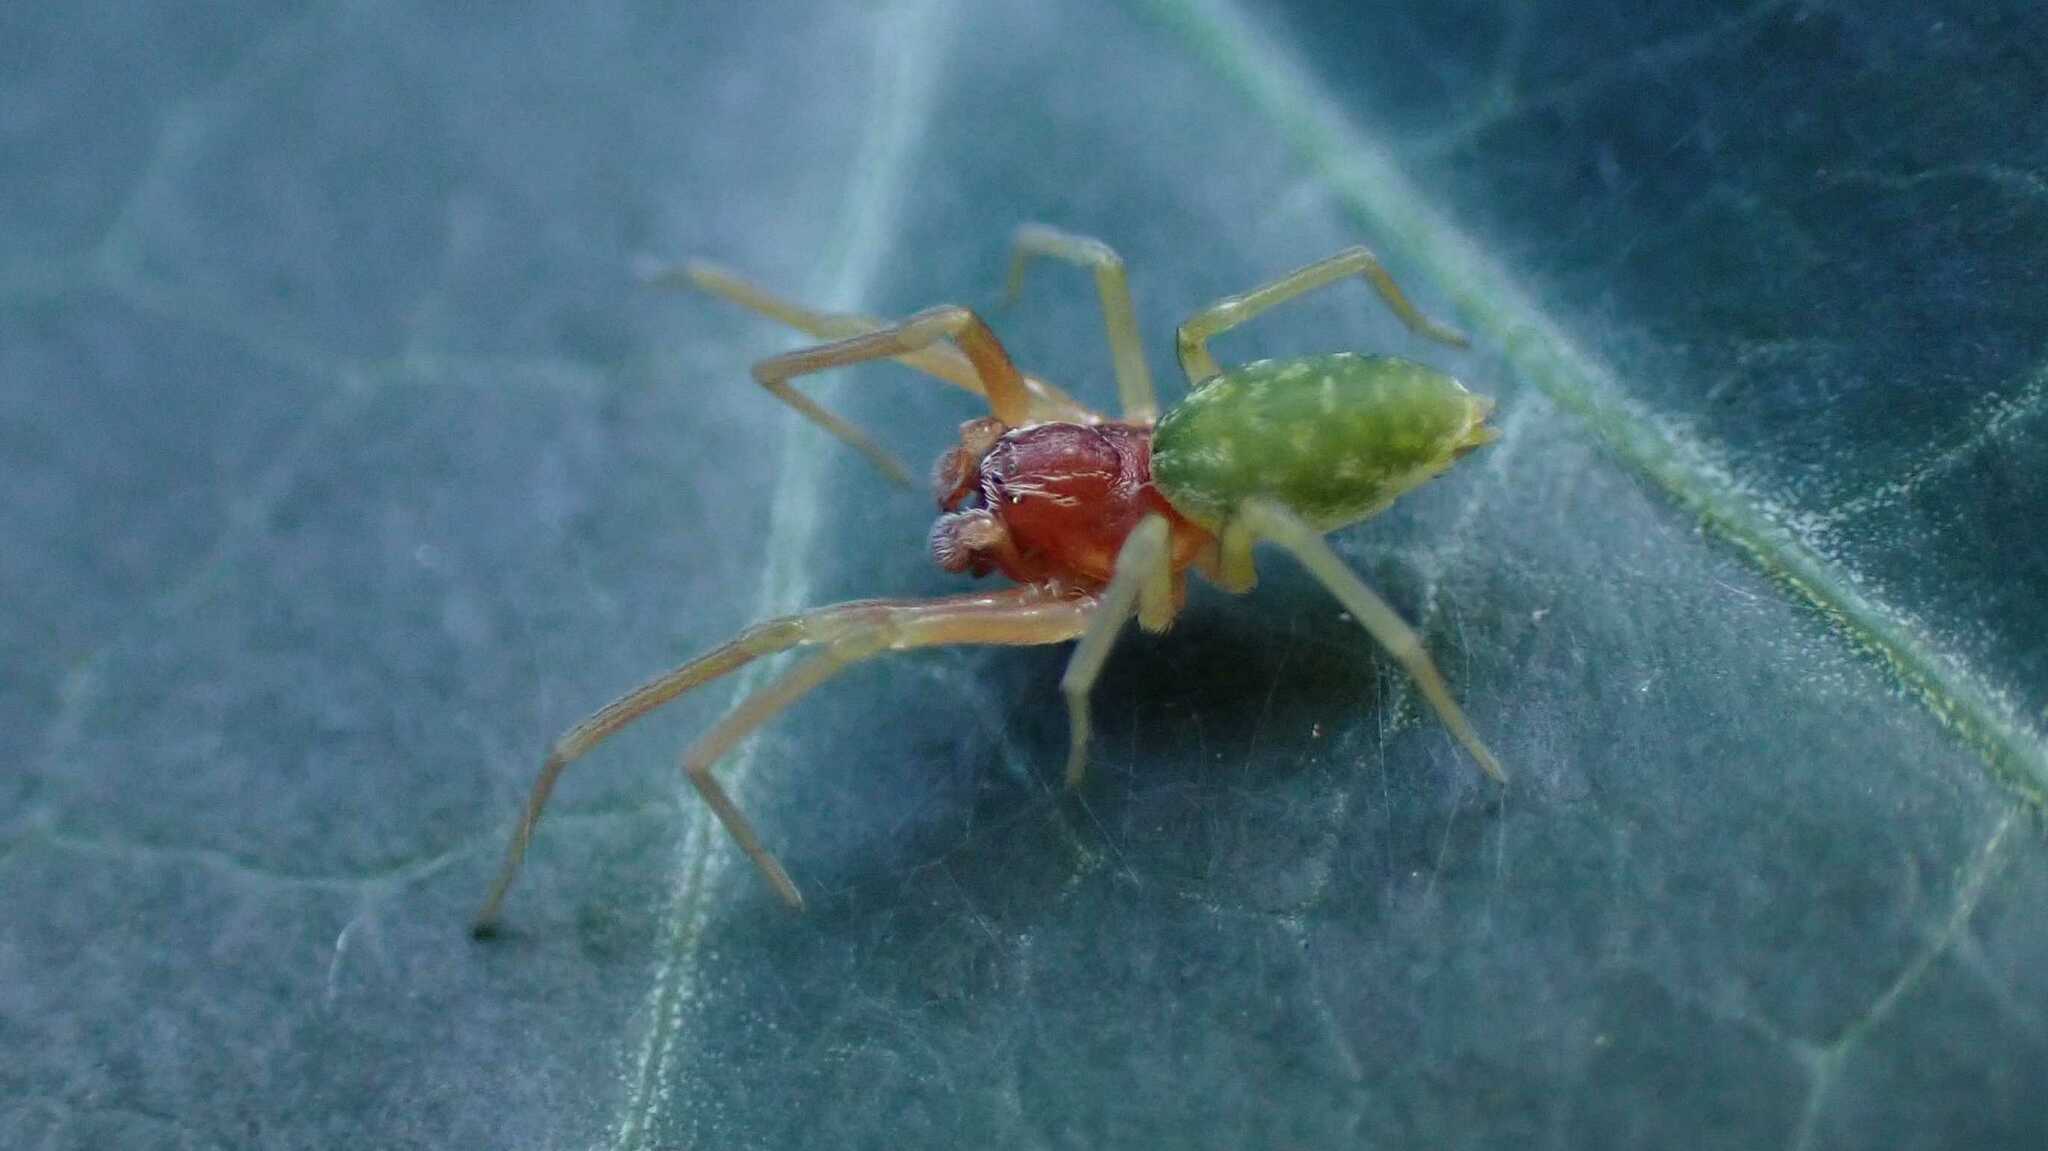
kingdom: Animalia
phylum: Arthropoda
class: Arachnida
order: Araneae
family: Dictynidae
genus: Nigma
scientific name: Nigma walckenaeri
